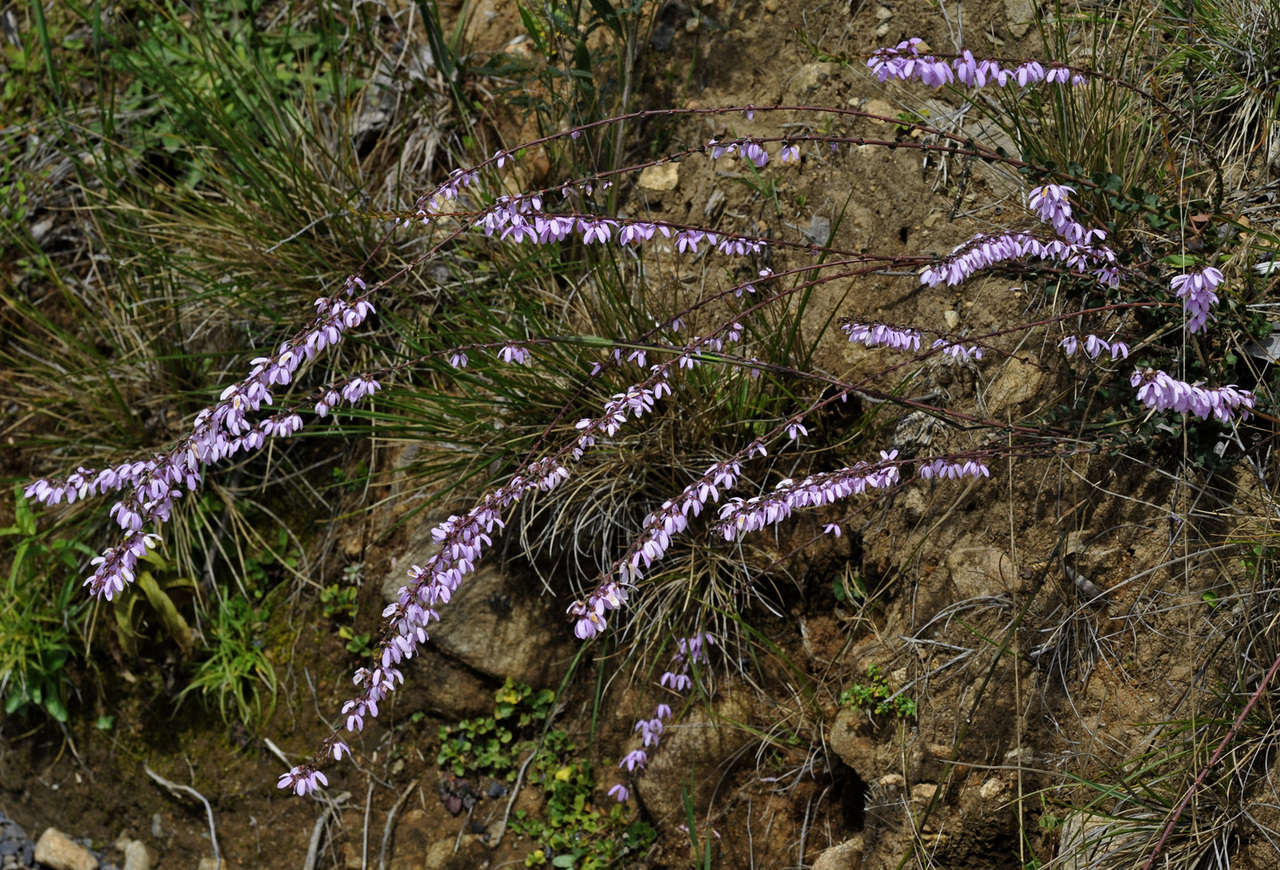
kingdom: Plantae
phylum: Tracheophyta
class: Magnoliopsida
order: Oxalidales
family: Elaeocarpaceae
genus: Tetratheca
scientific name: Tetratheca ciliata
